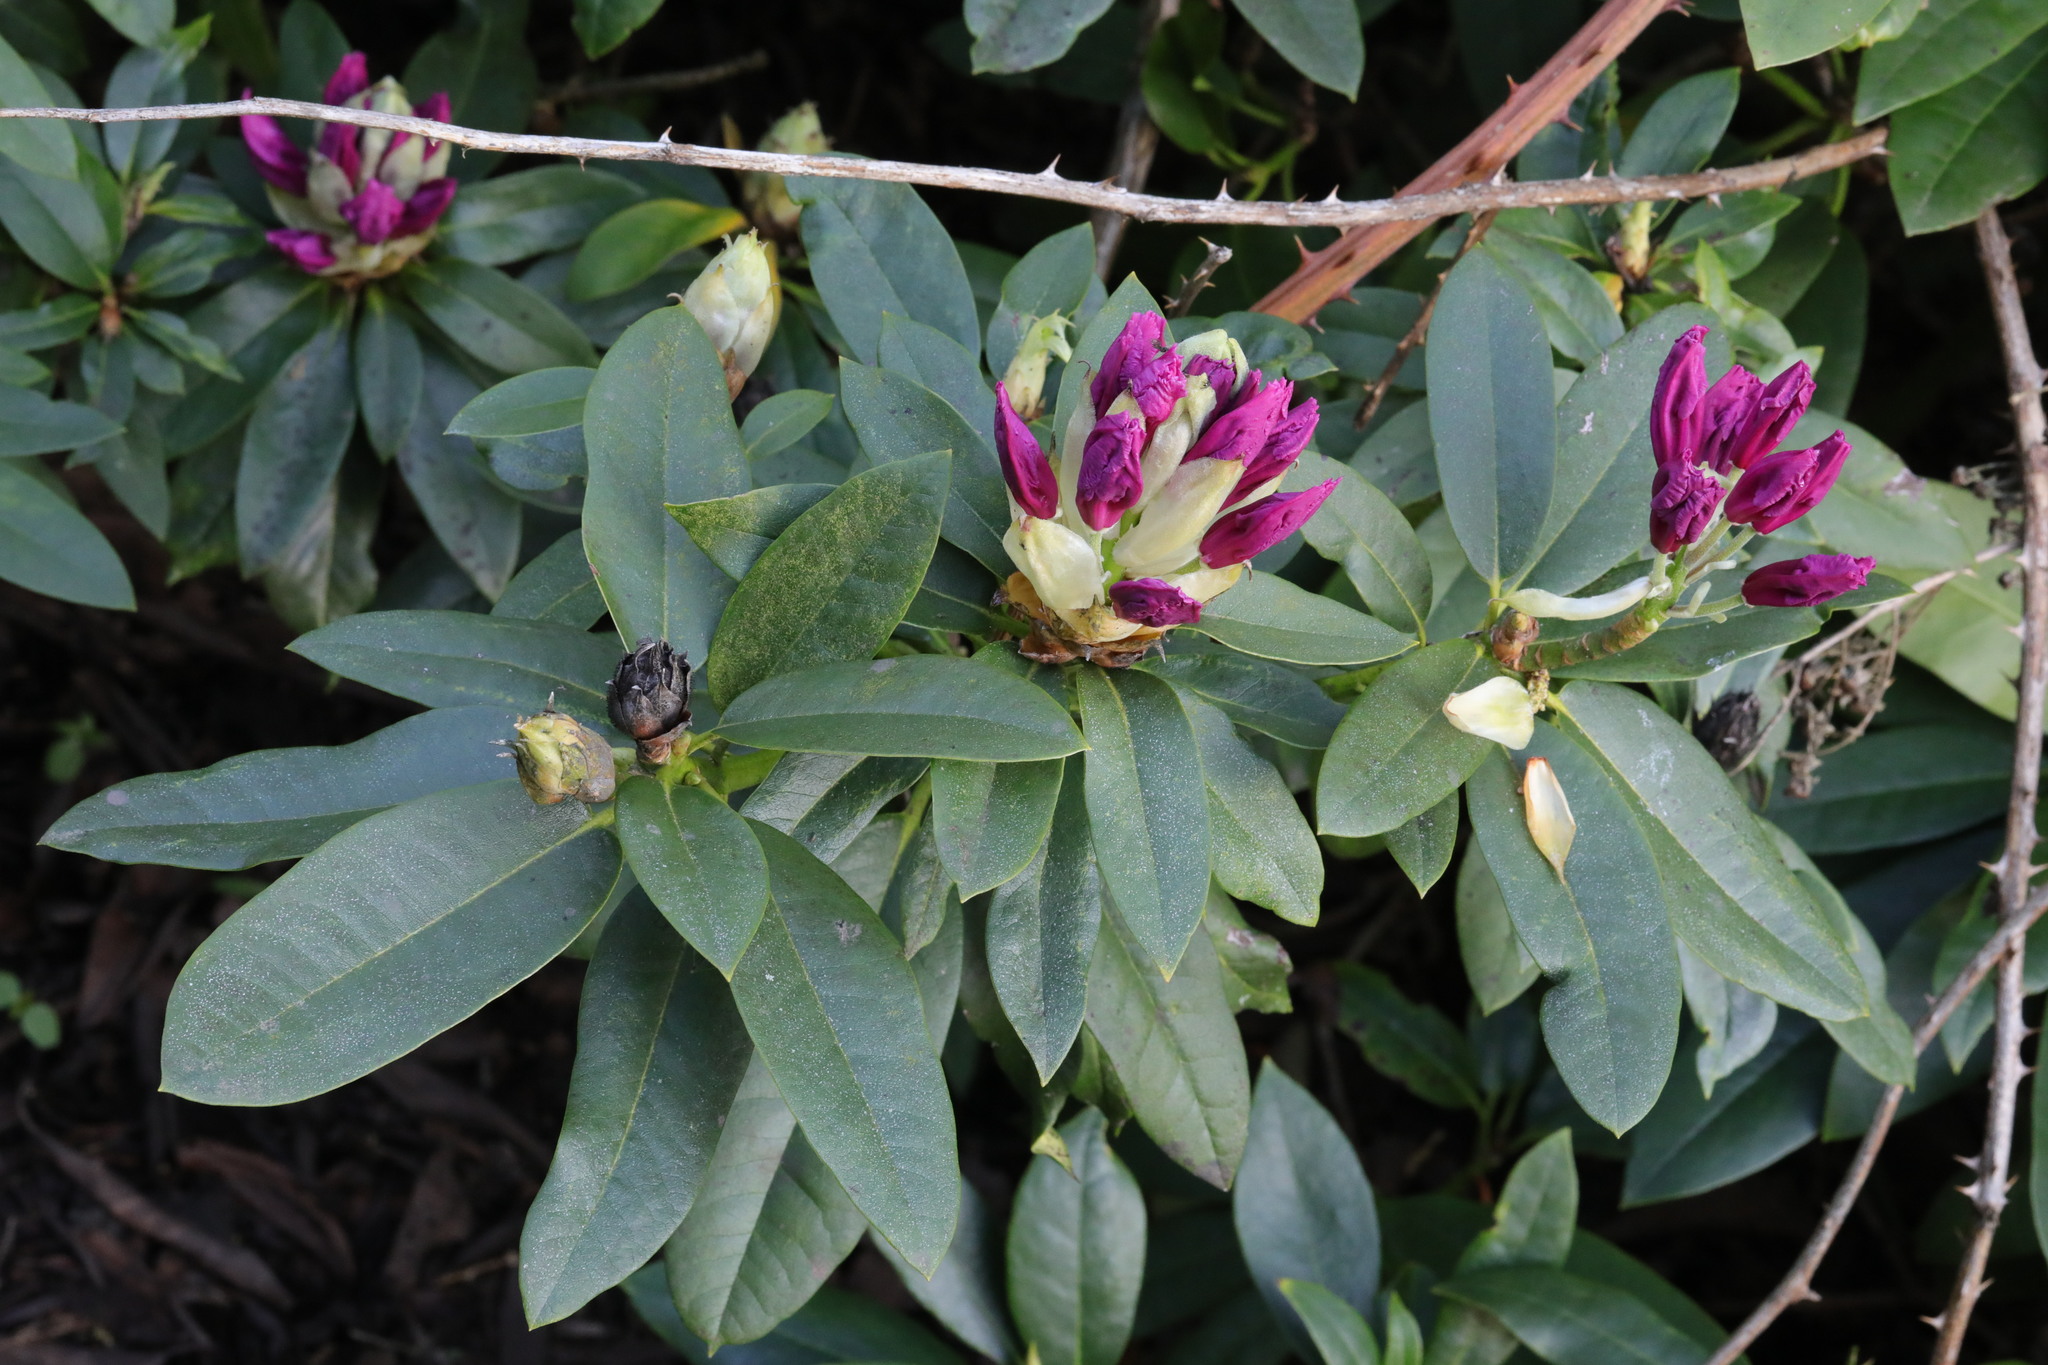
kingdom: Plantae
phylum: Tracheophyta
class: Magnoliopsida
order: Ericales
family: Ericaceae
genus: Rhododendron
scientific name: Rhododendron ponticum
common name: Rhododendron
